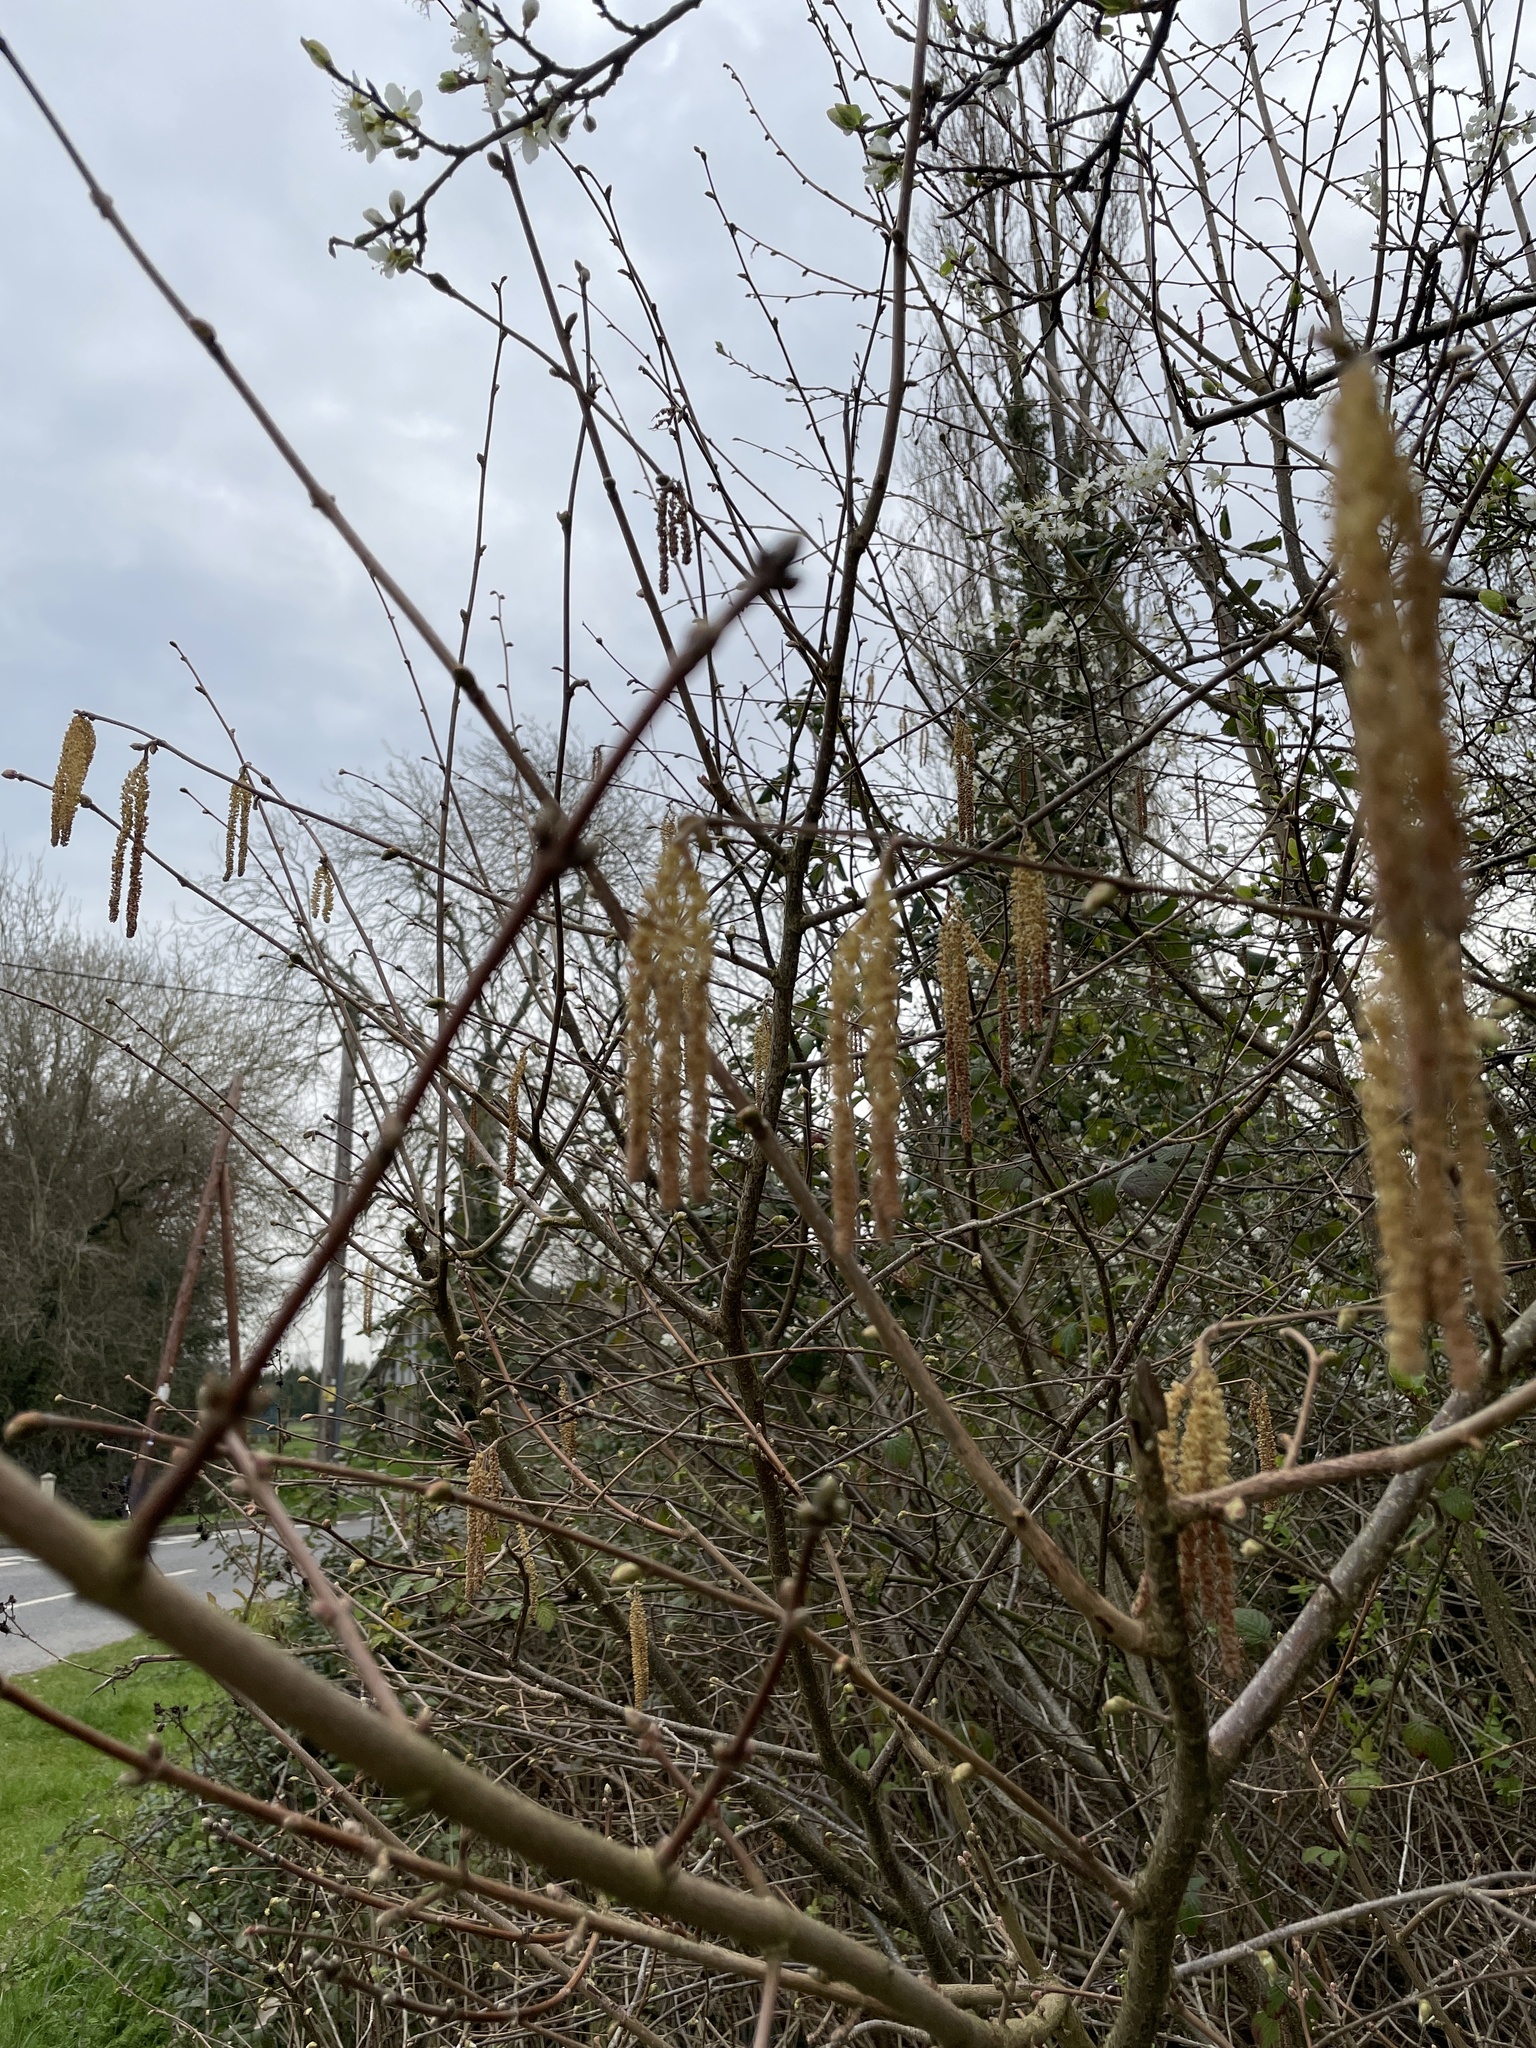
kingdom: Plantae
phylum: Tracheophyta
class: Magnoliopsida
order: Fagales
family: Betulaceae
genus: Corylus
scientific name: Corylus avellana
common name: European hazel
